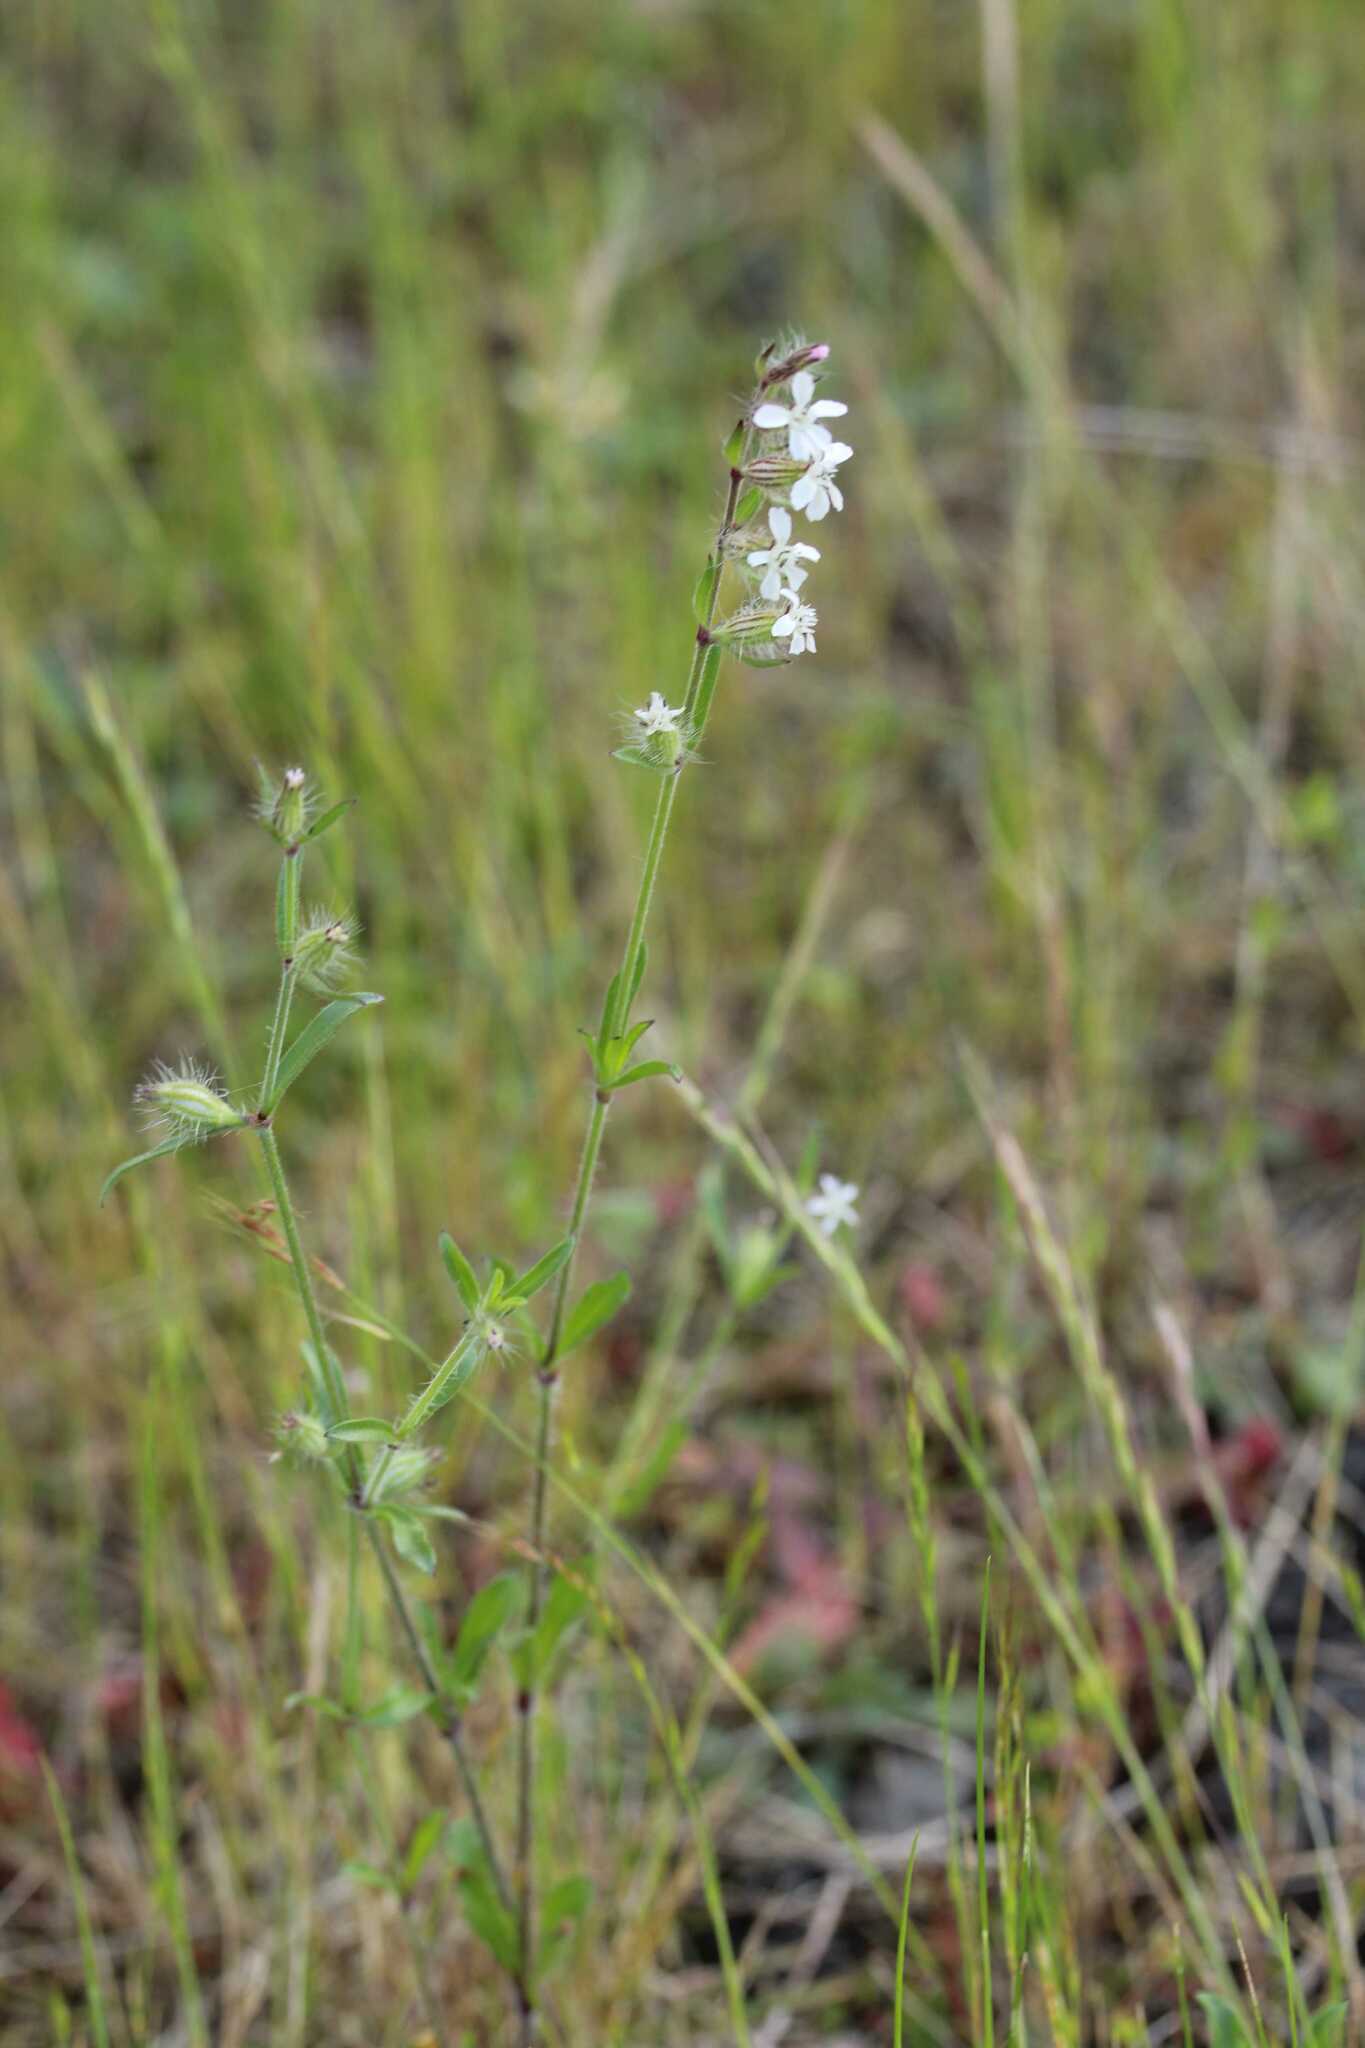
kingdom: Plantae
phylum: Tracheophyta
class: Magnoliopsida
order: Caryophyllales
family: Caryophyllaceae
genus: Silene
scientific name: Silene gallica
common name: Small-flowered catchfly
